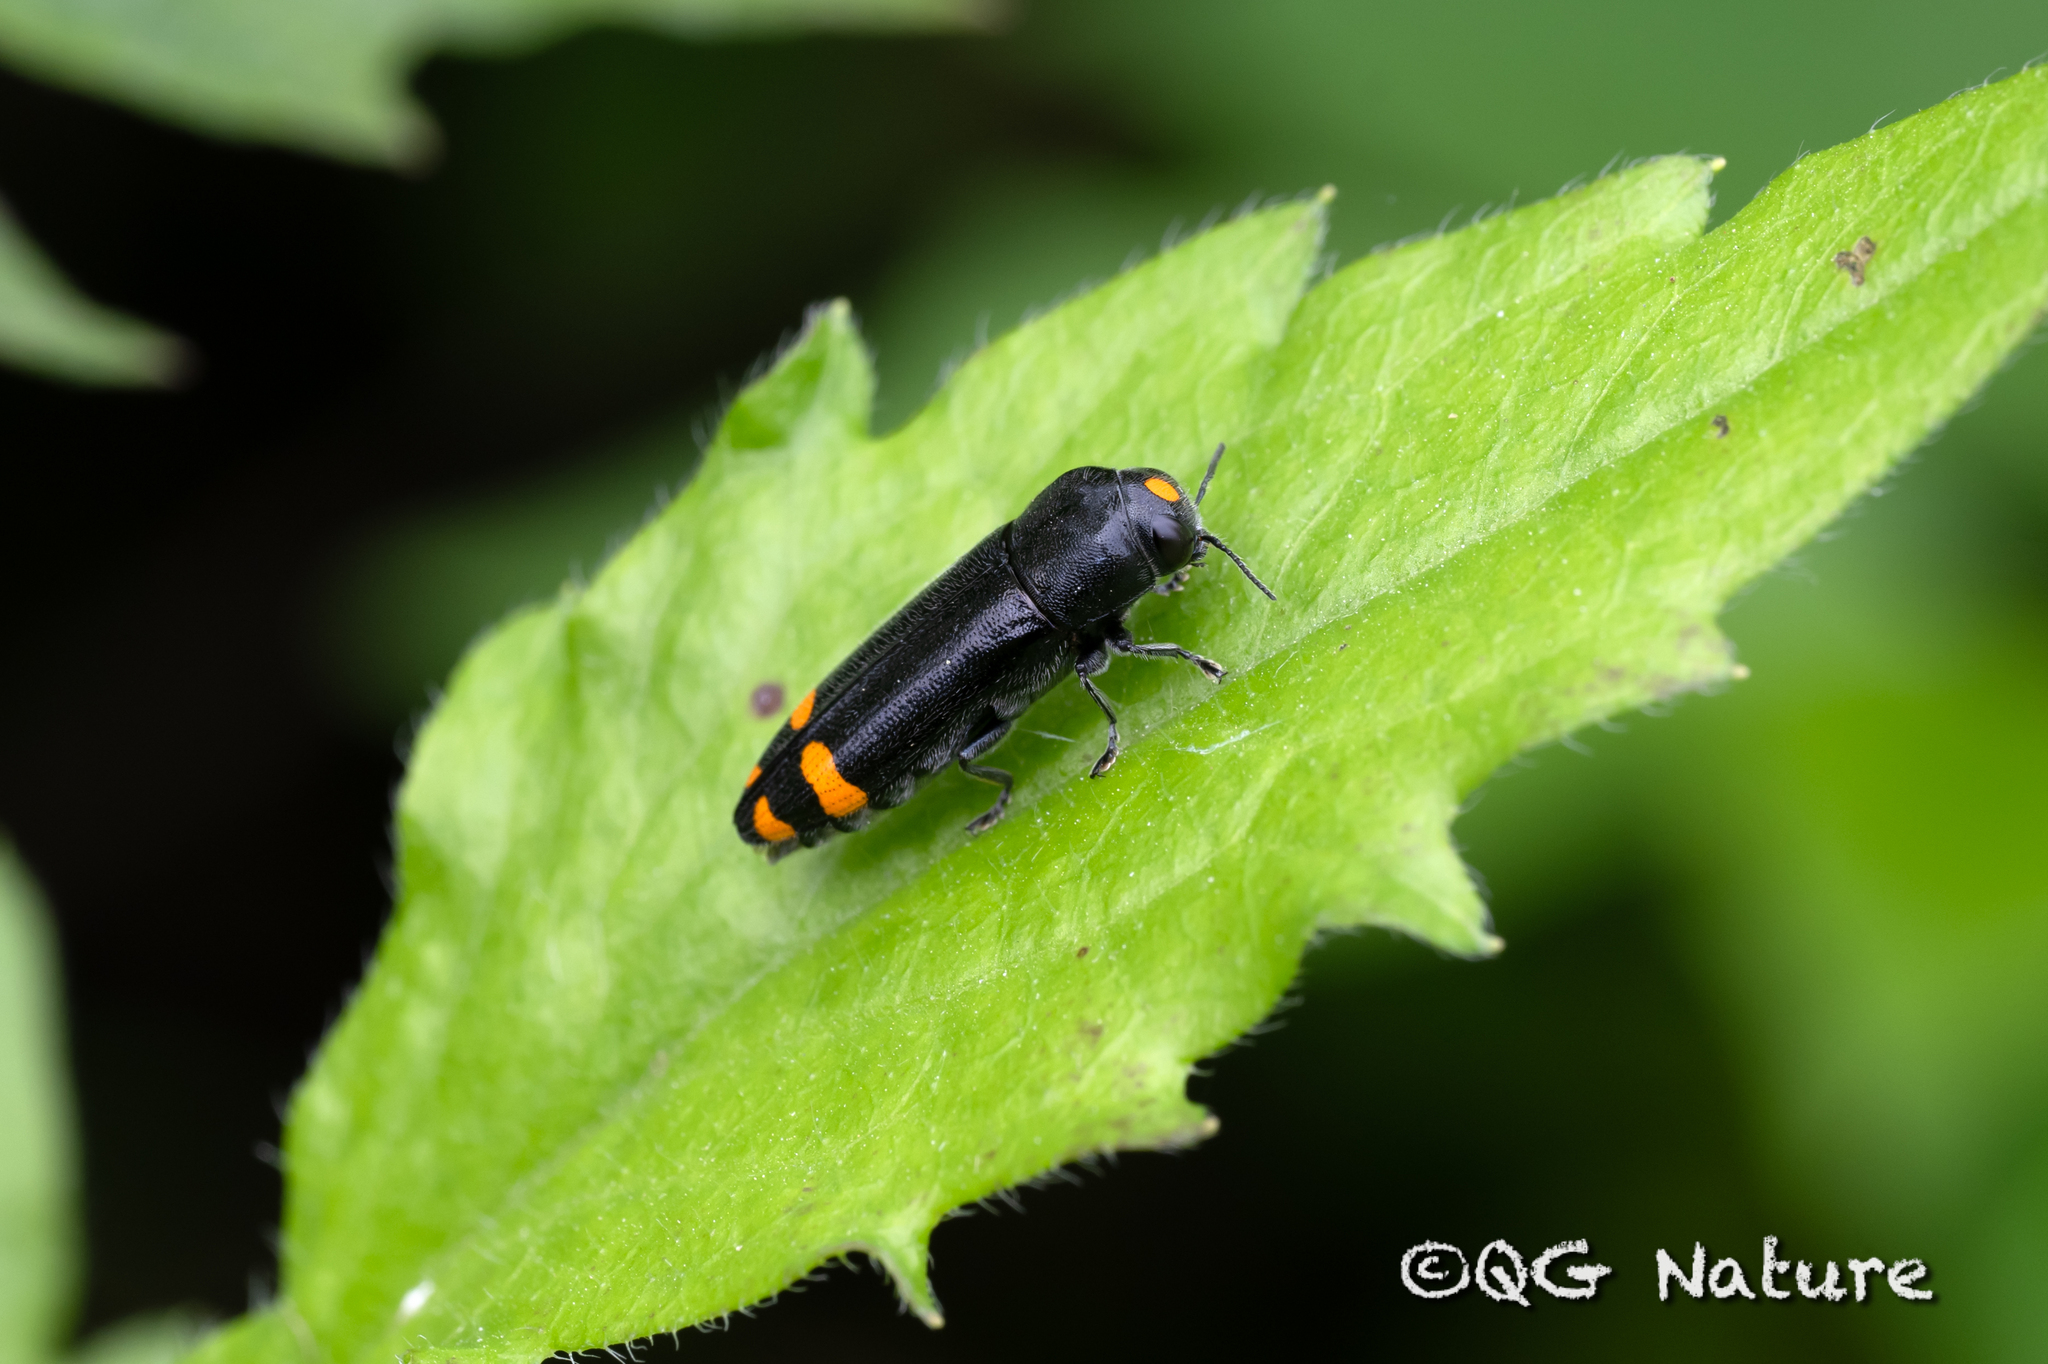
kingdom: Animalia
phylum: Arthropoda
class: Insecta
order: Coleoptera
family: Buprestidae
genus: Ptosima
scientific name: Ptosima chinensis
